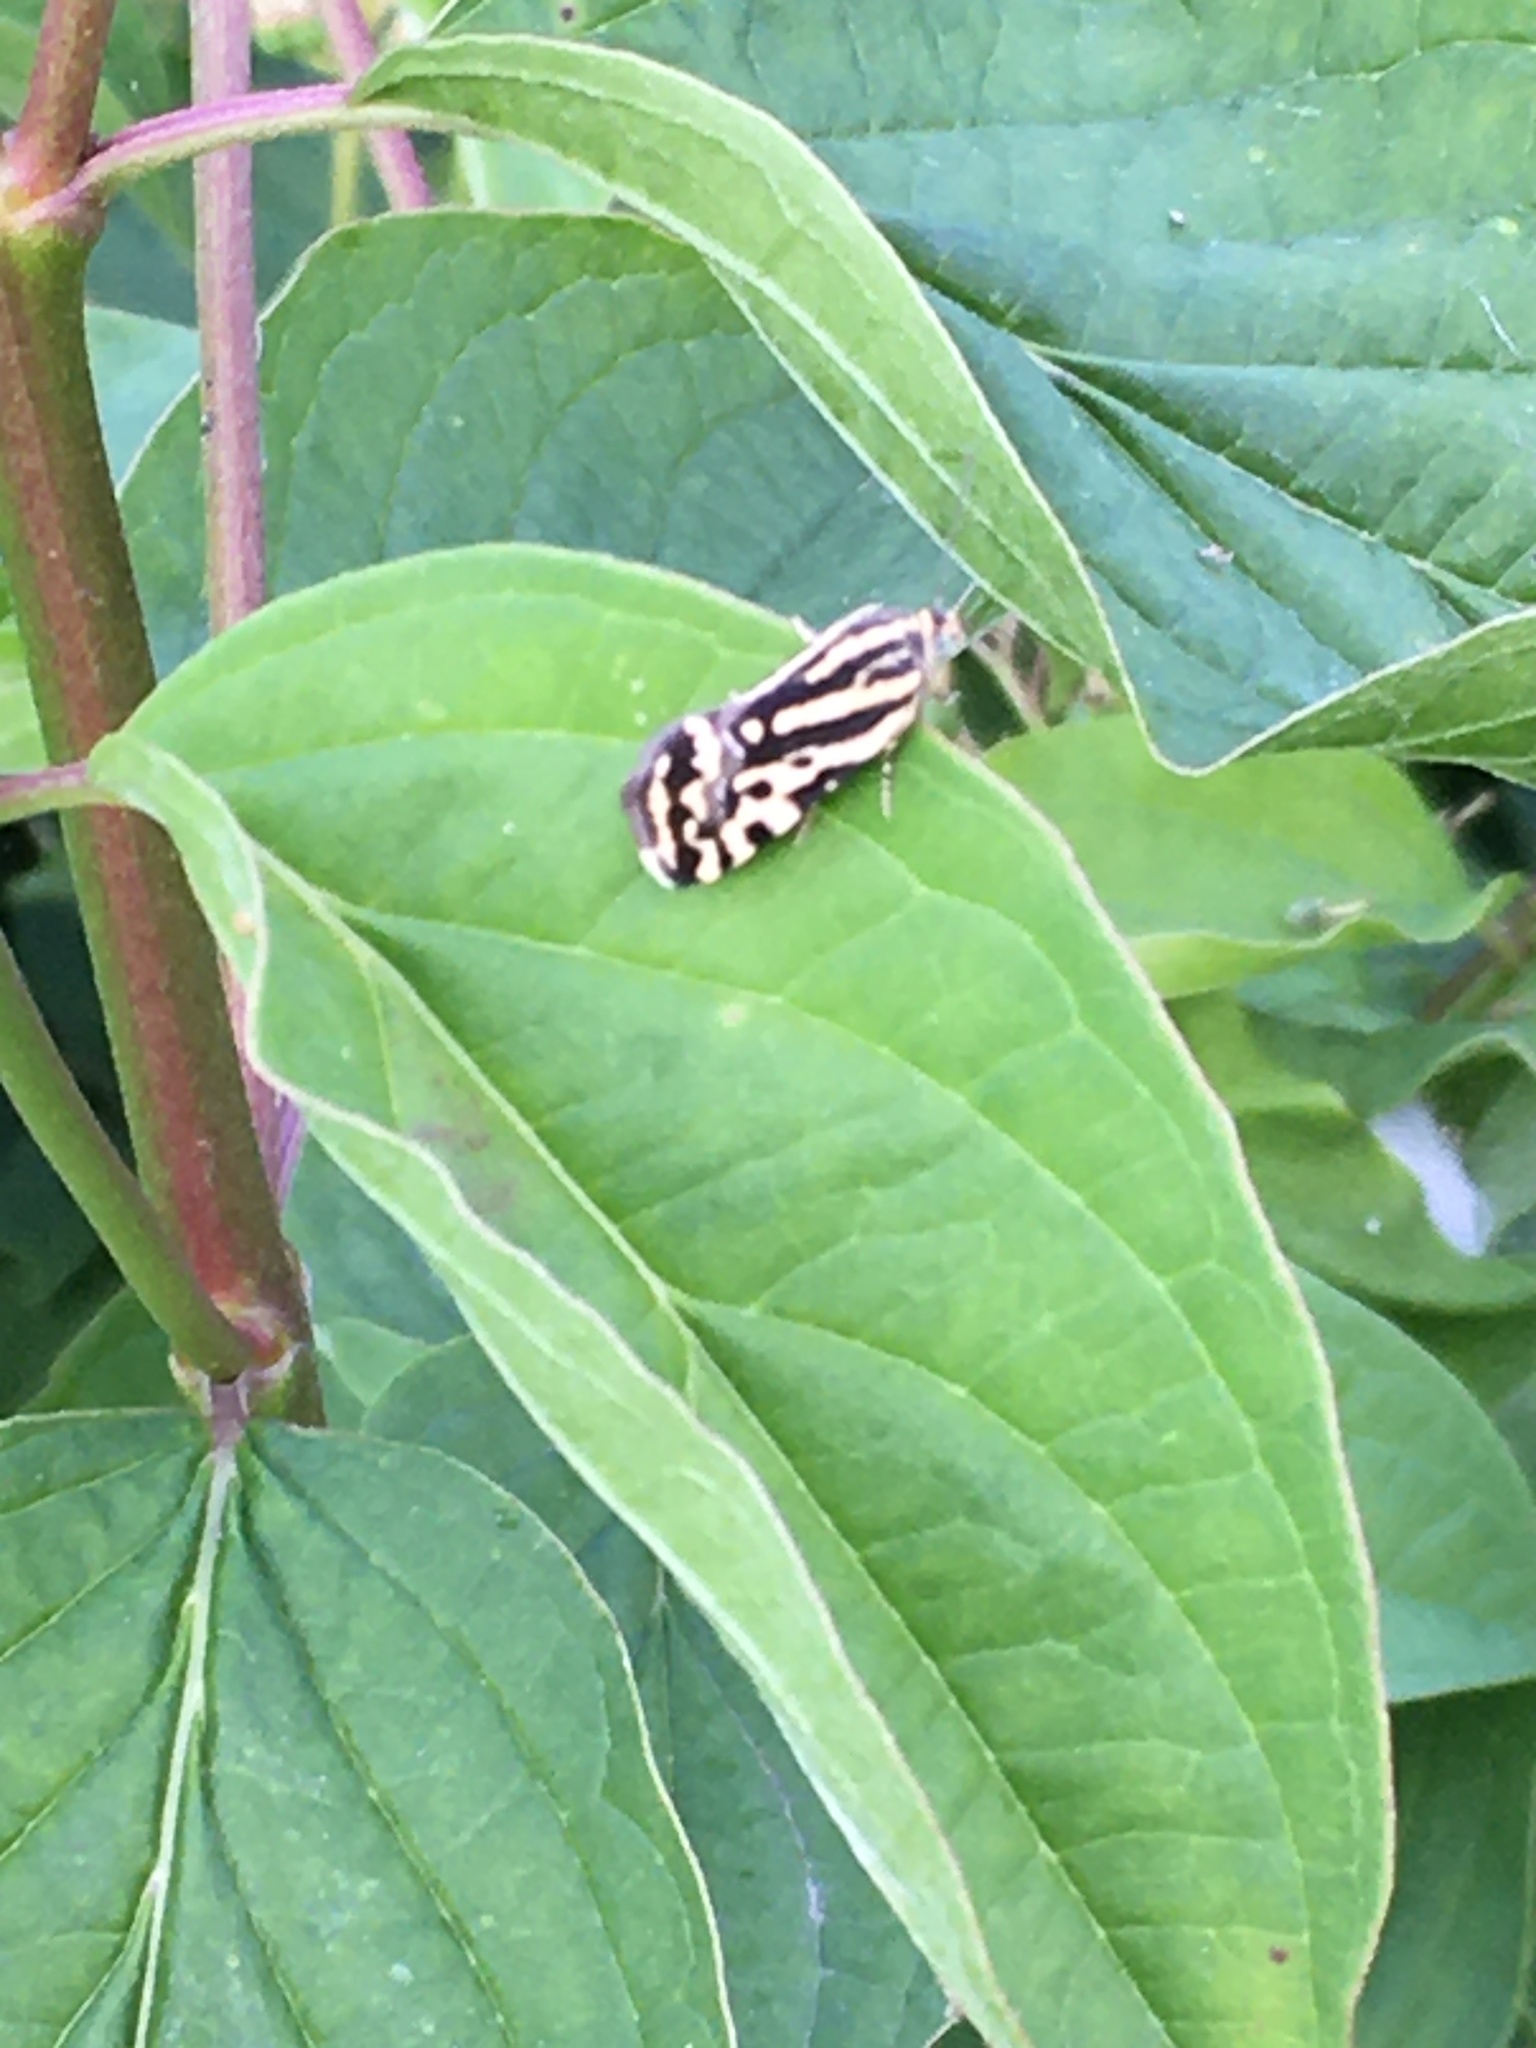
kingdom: Animalia
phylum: Arthropoda
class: Insecta
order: Lepidoptera
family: Noctuidae
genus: Acontia
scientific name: Acontia trabealis
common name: Spotted sulphur
